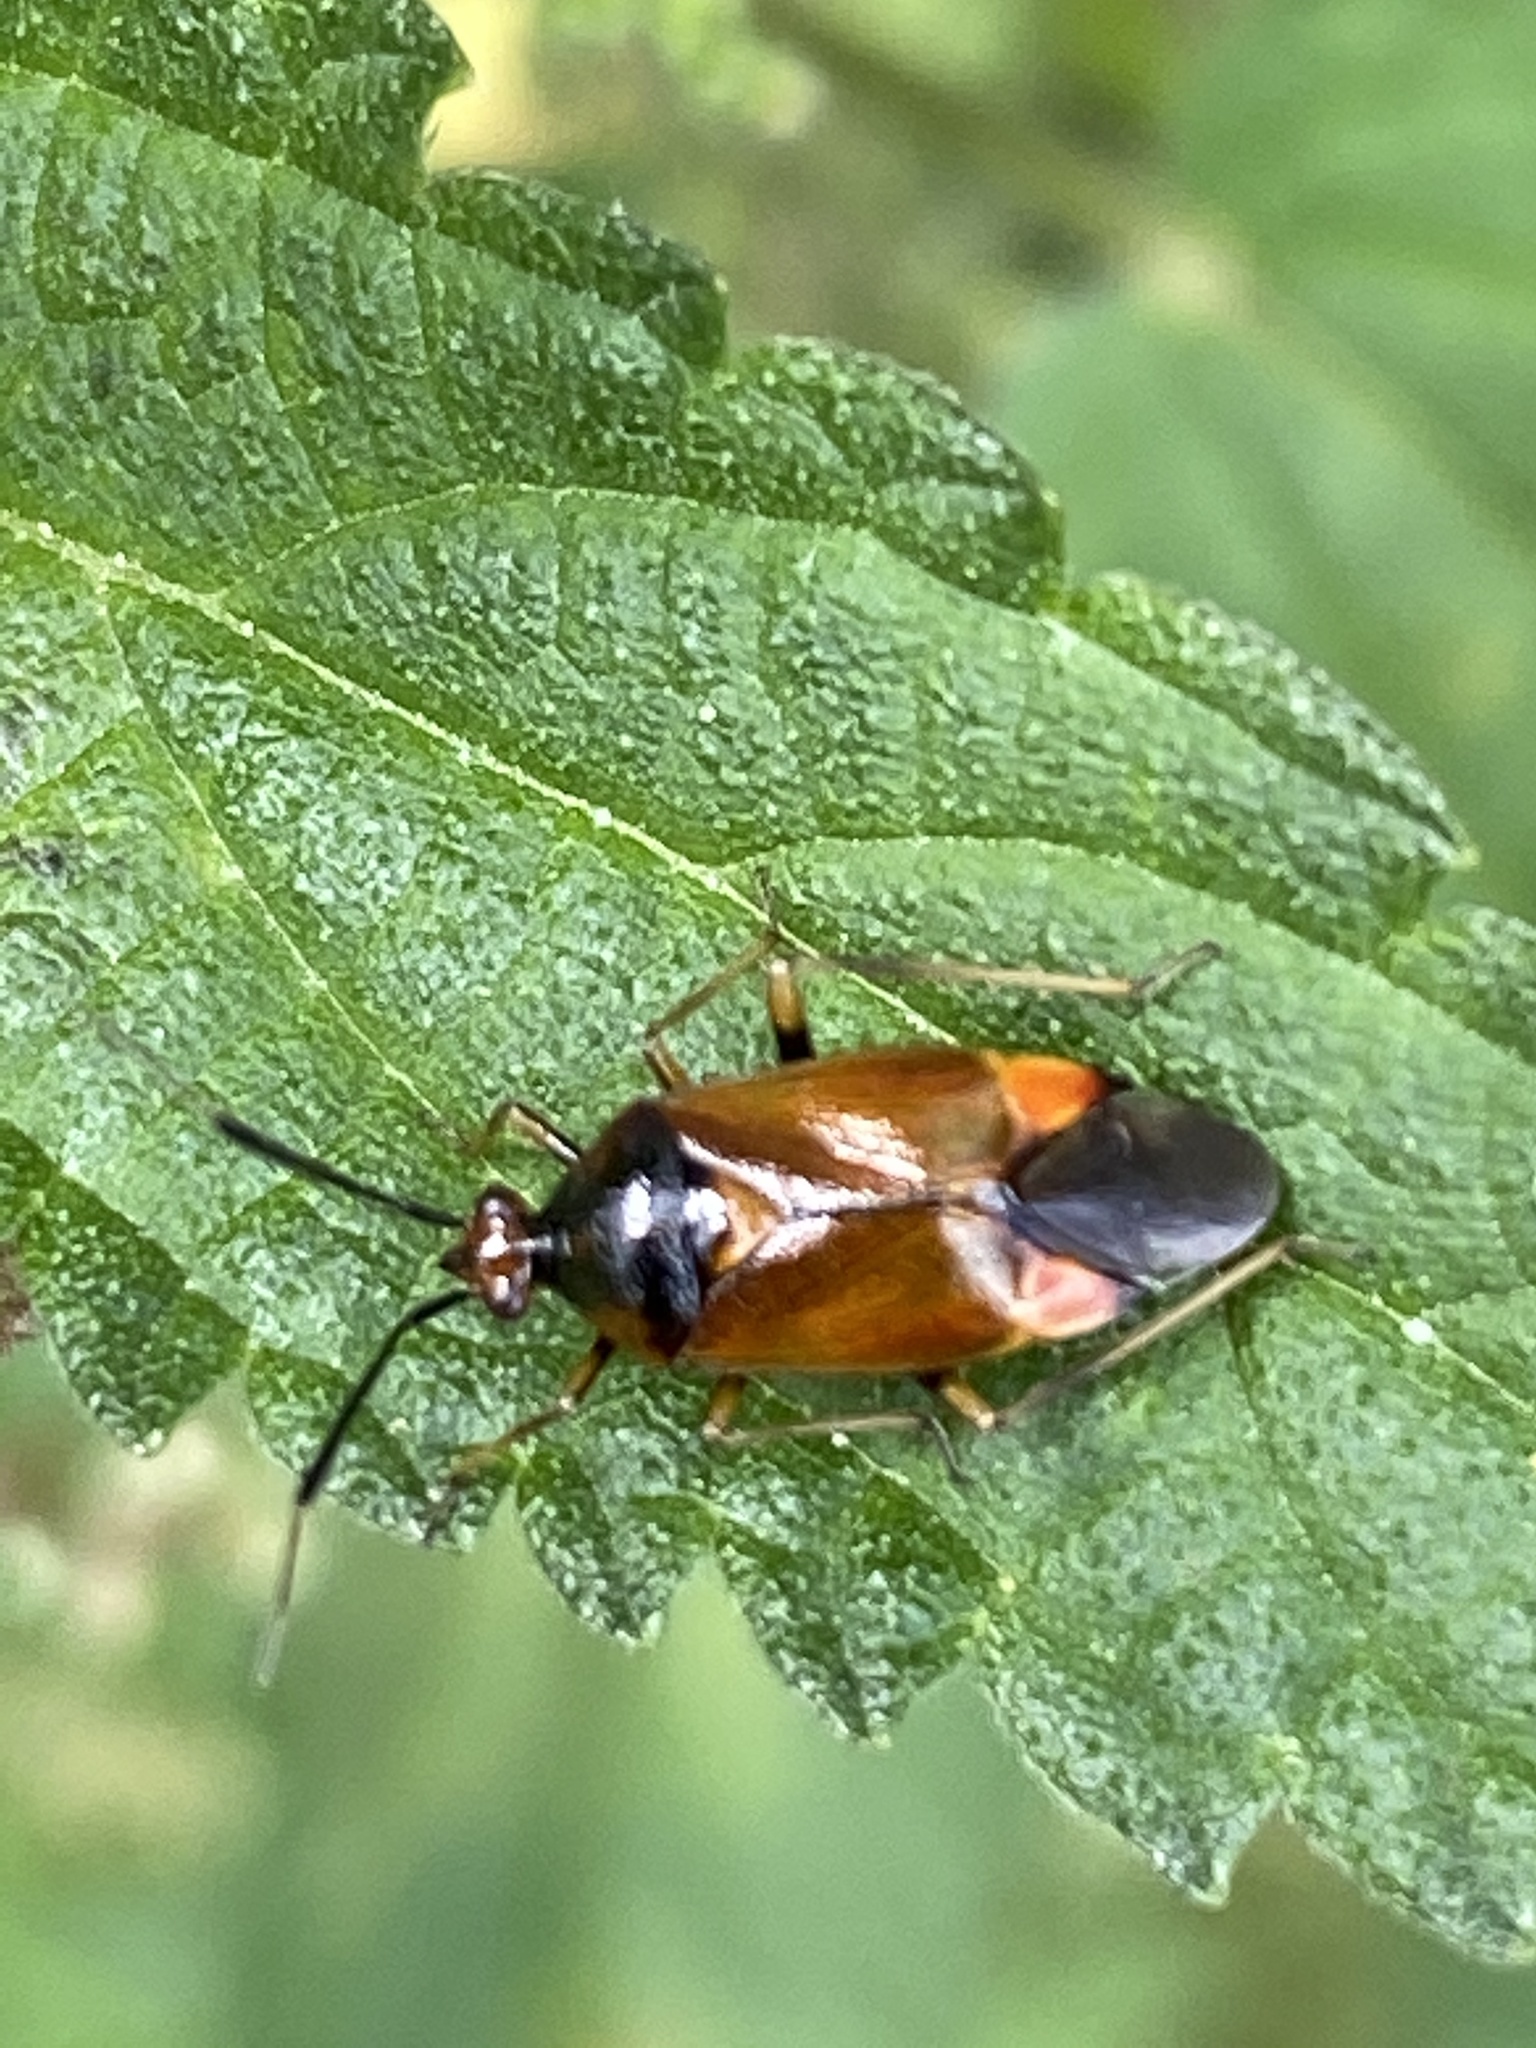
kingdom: Animalia
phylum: Arthropoda
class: Insecta
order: Hemiptera
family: Miridae
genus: Deraeocoris
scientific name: Deraeocoris ruber
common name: Plant bug
